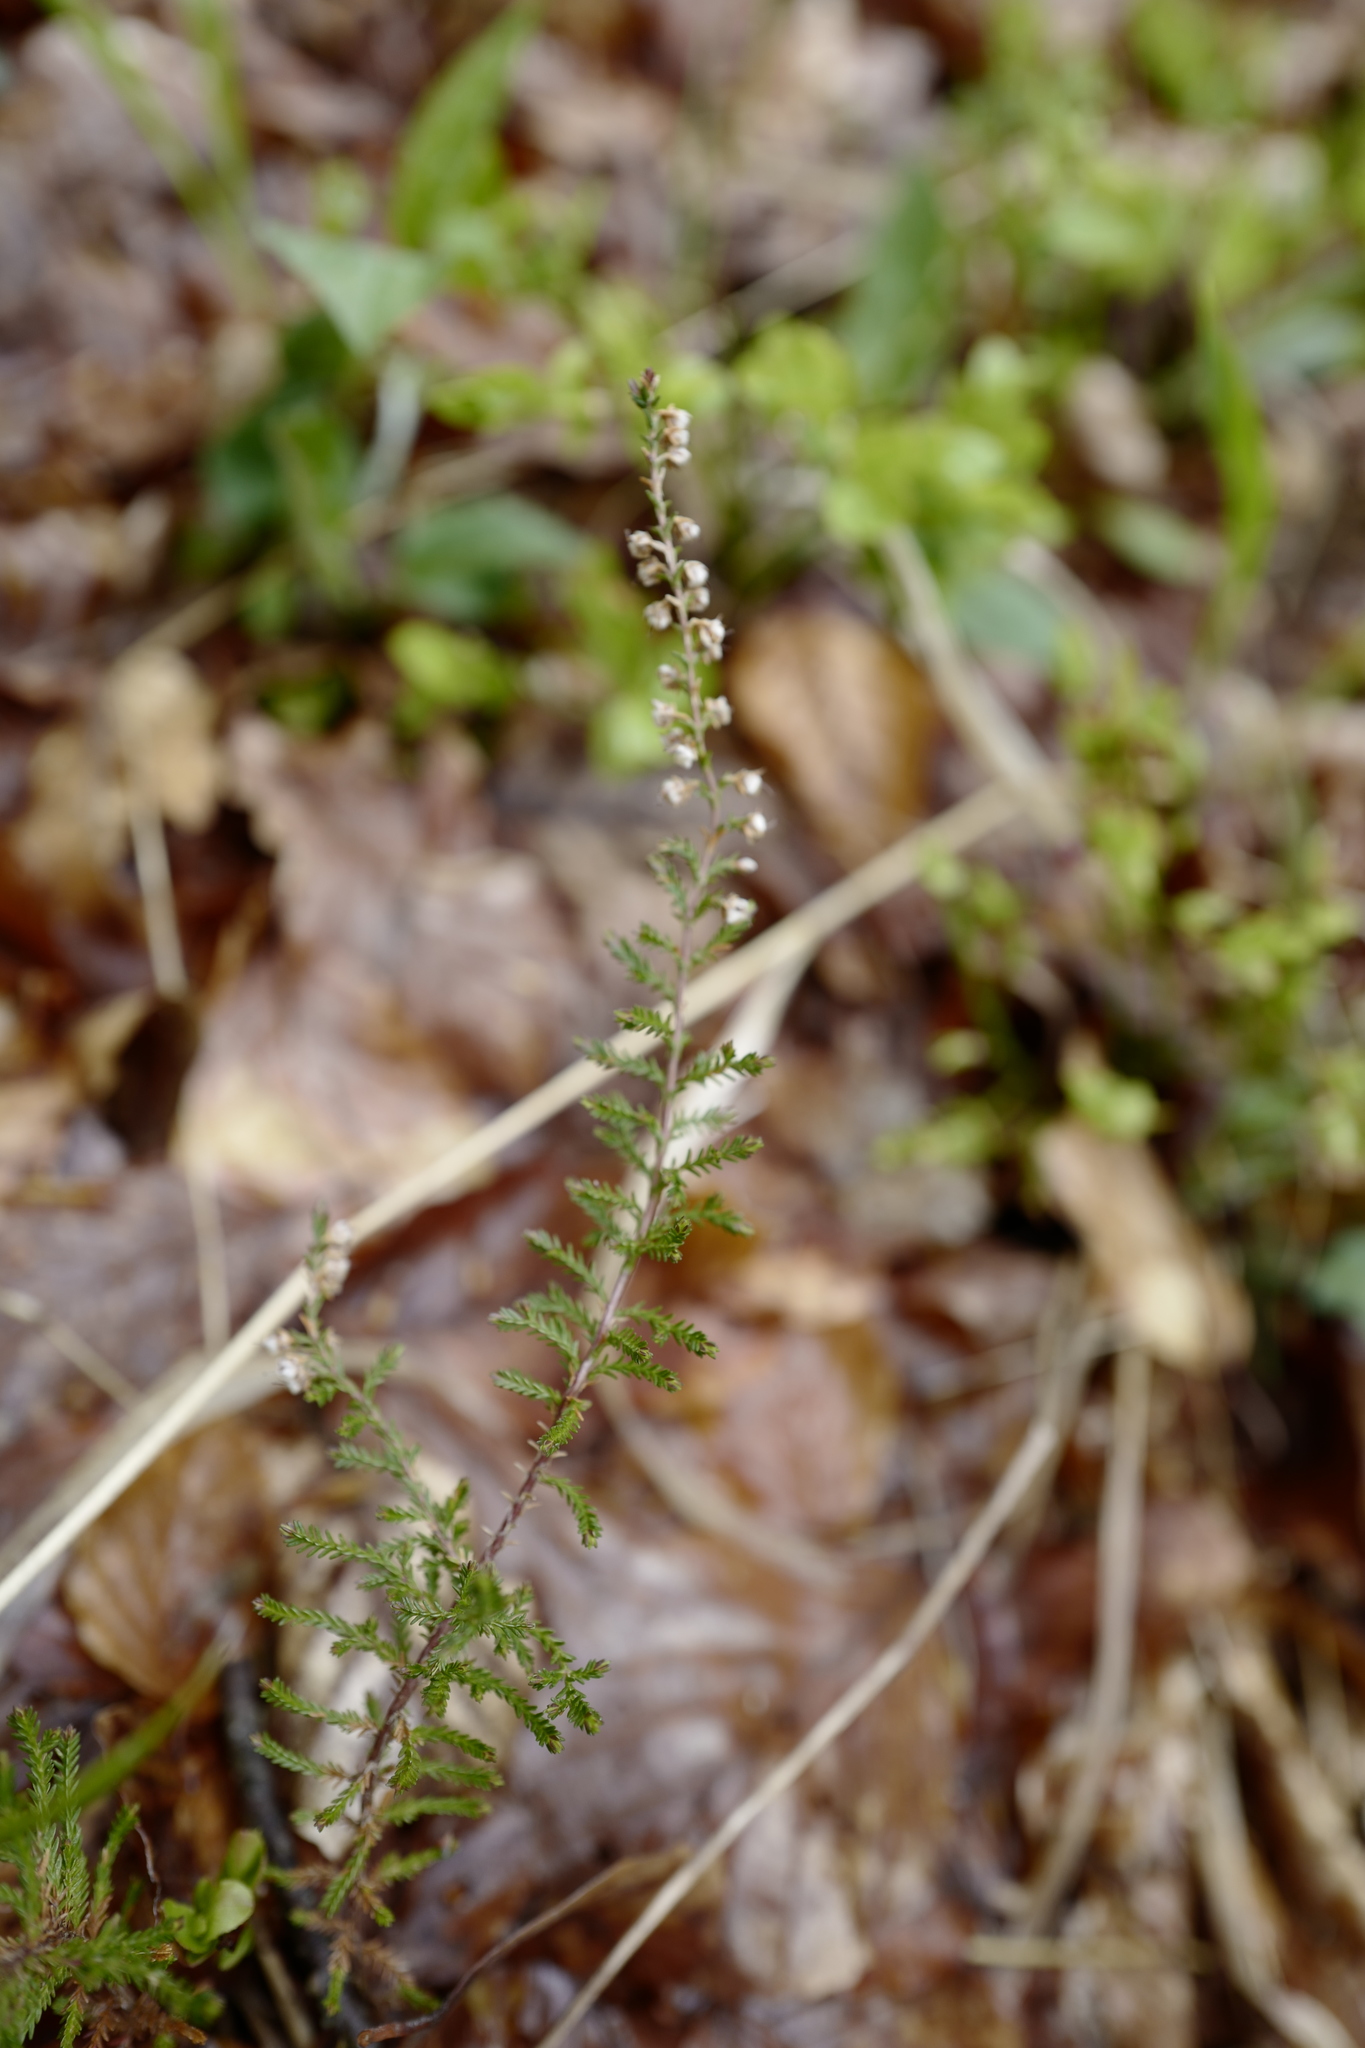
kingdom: Plantae
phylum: Tracheophyta
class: Magnoliopsida
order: Ericales
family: Ericaceae
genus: Calluna
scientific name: Calluna vulgaris
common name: Heather
